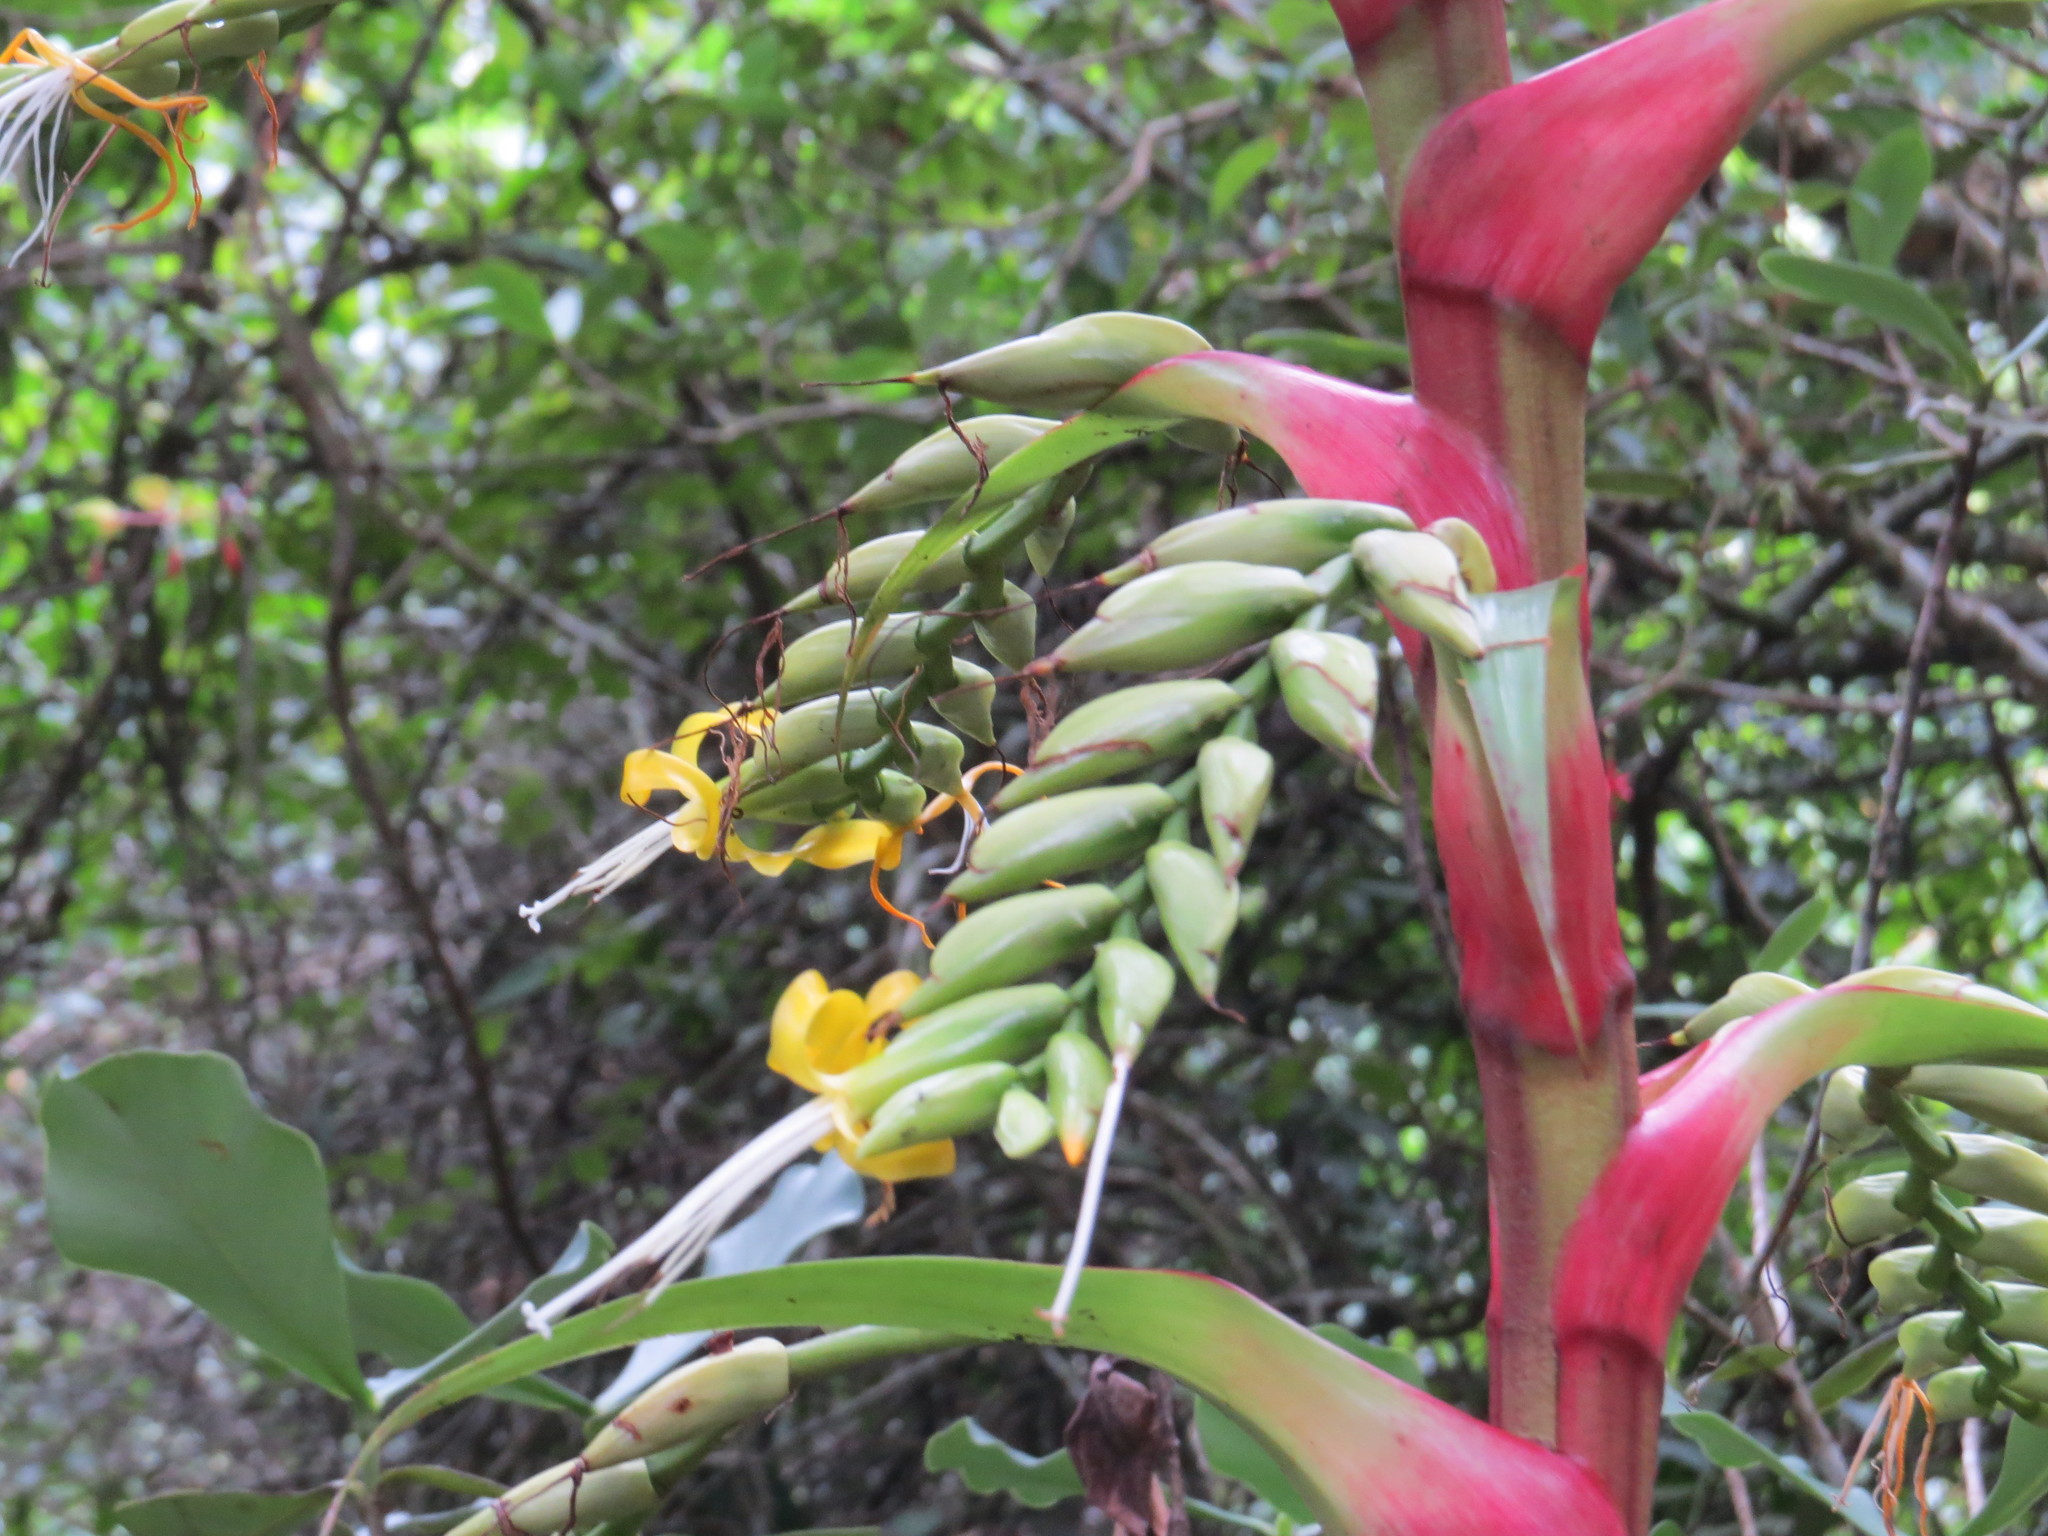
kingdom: Plantae
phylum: Tracheophyta
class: Liliopsida
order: Poales
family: Bromeliaceae
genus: Alcantarea
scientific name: Alcantarea geniculata
